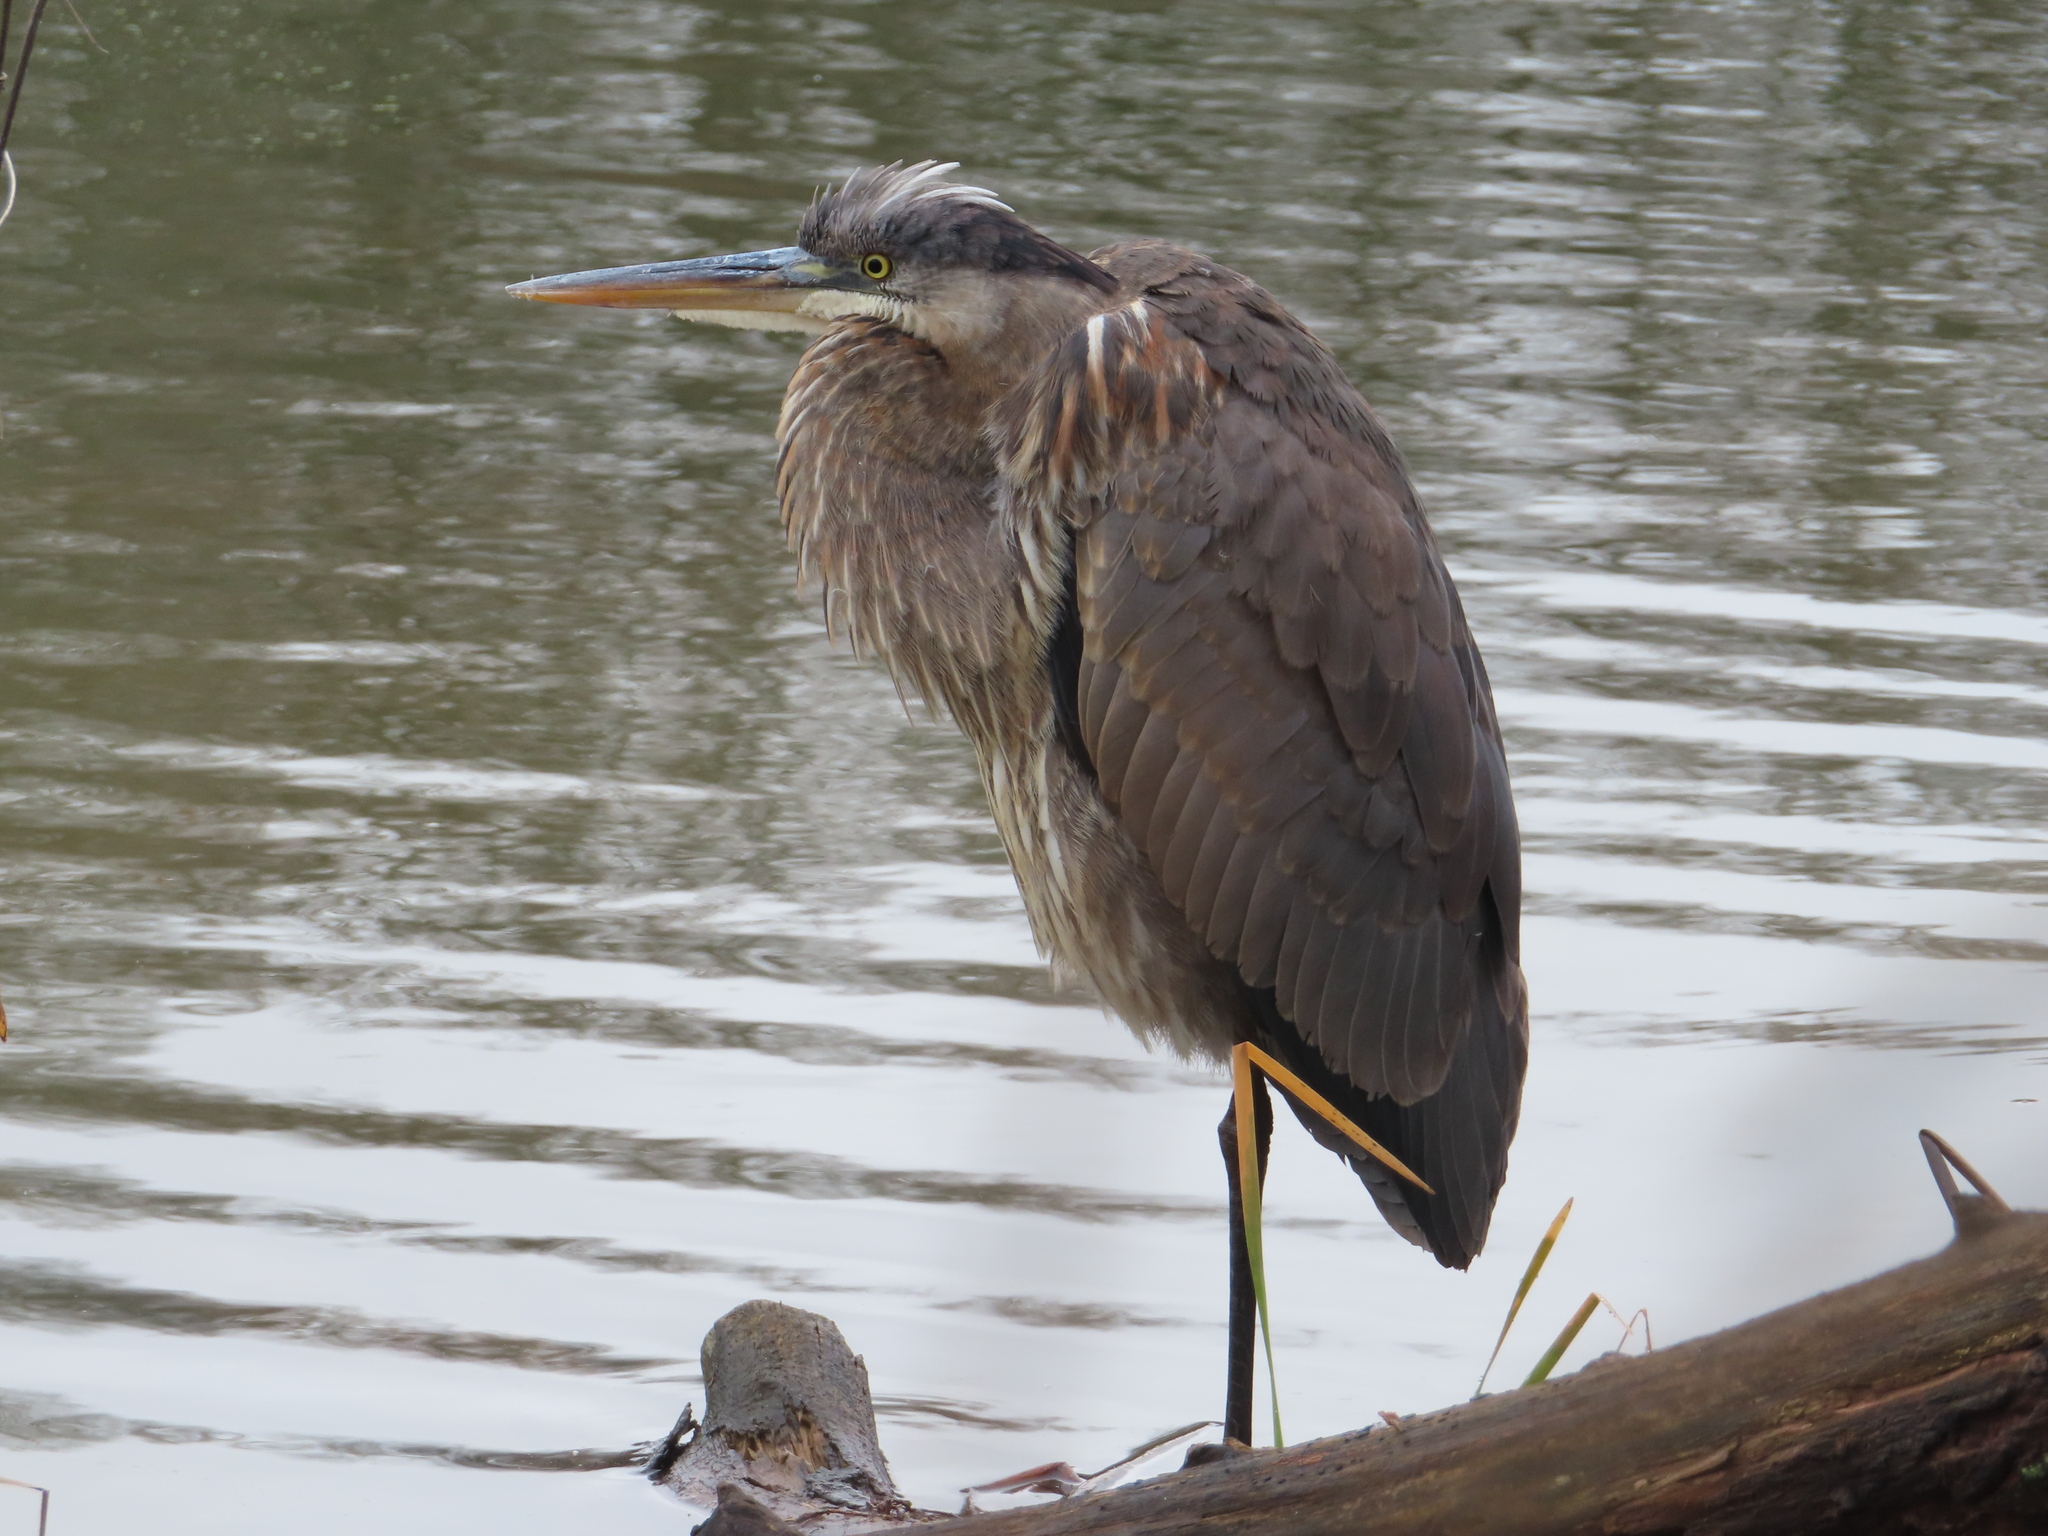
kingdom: Animalia
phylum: Chordata
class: Aves
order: Pelecaniformes
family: Ardeidae
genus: Ardea
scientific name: Ardea herodias
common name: Great blue heron
